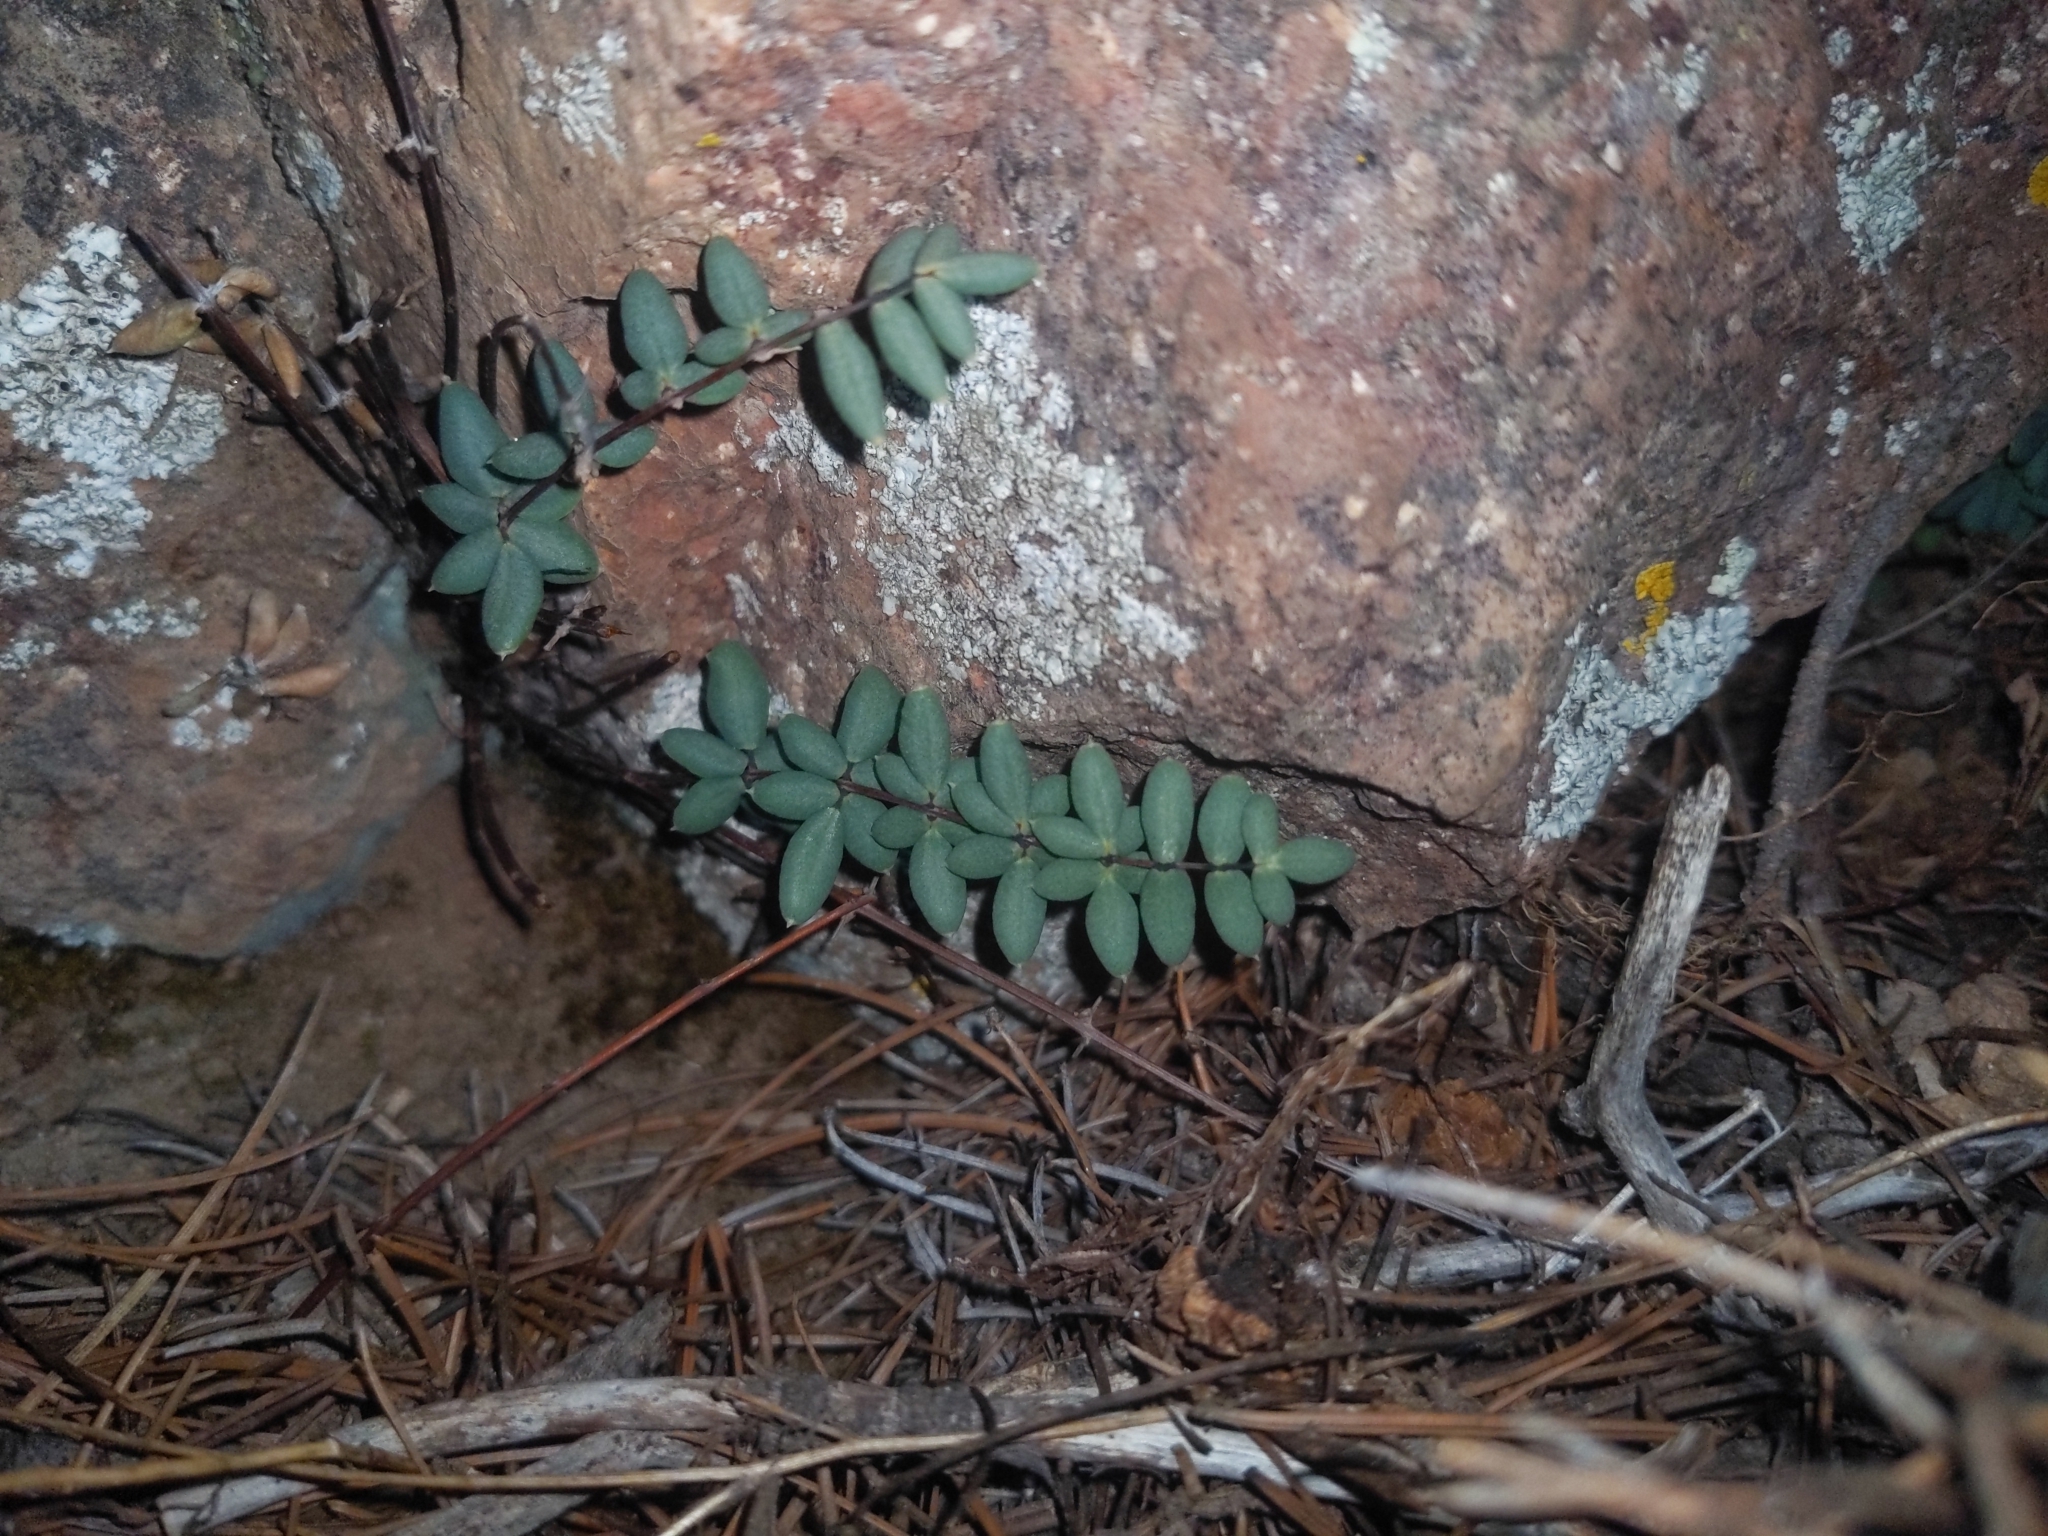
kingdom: Plantae
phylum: Tracheophyta
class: Polypodiopsida
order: Polypodiales
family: Pteridaceae
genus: Pellaea
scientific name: Pellaea wrightiana
